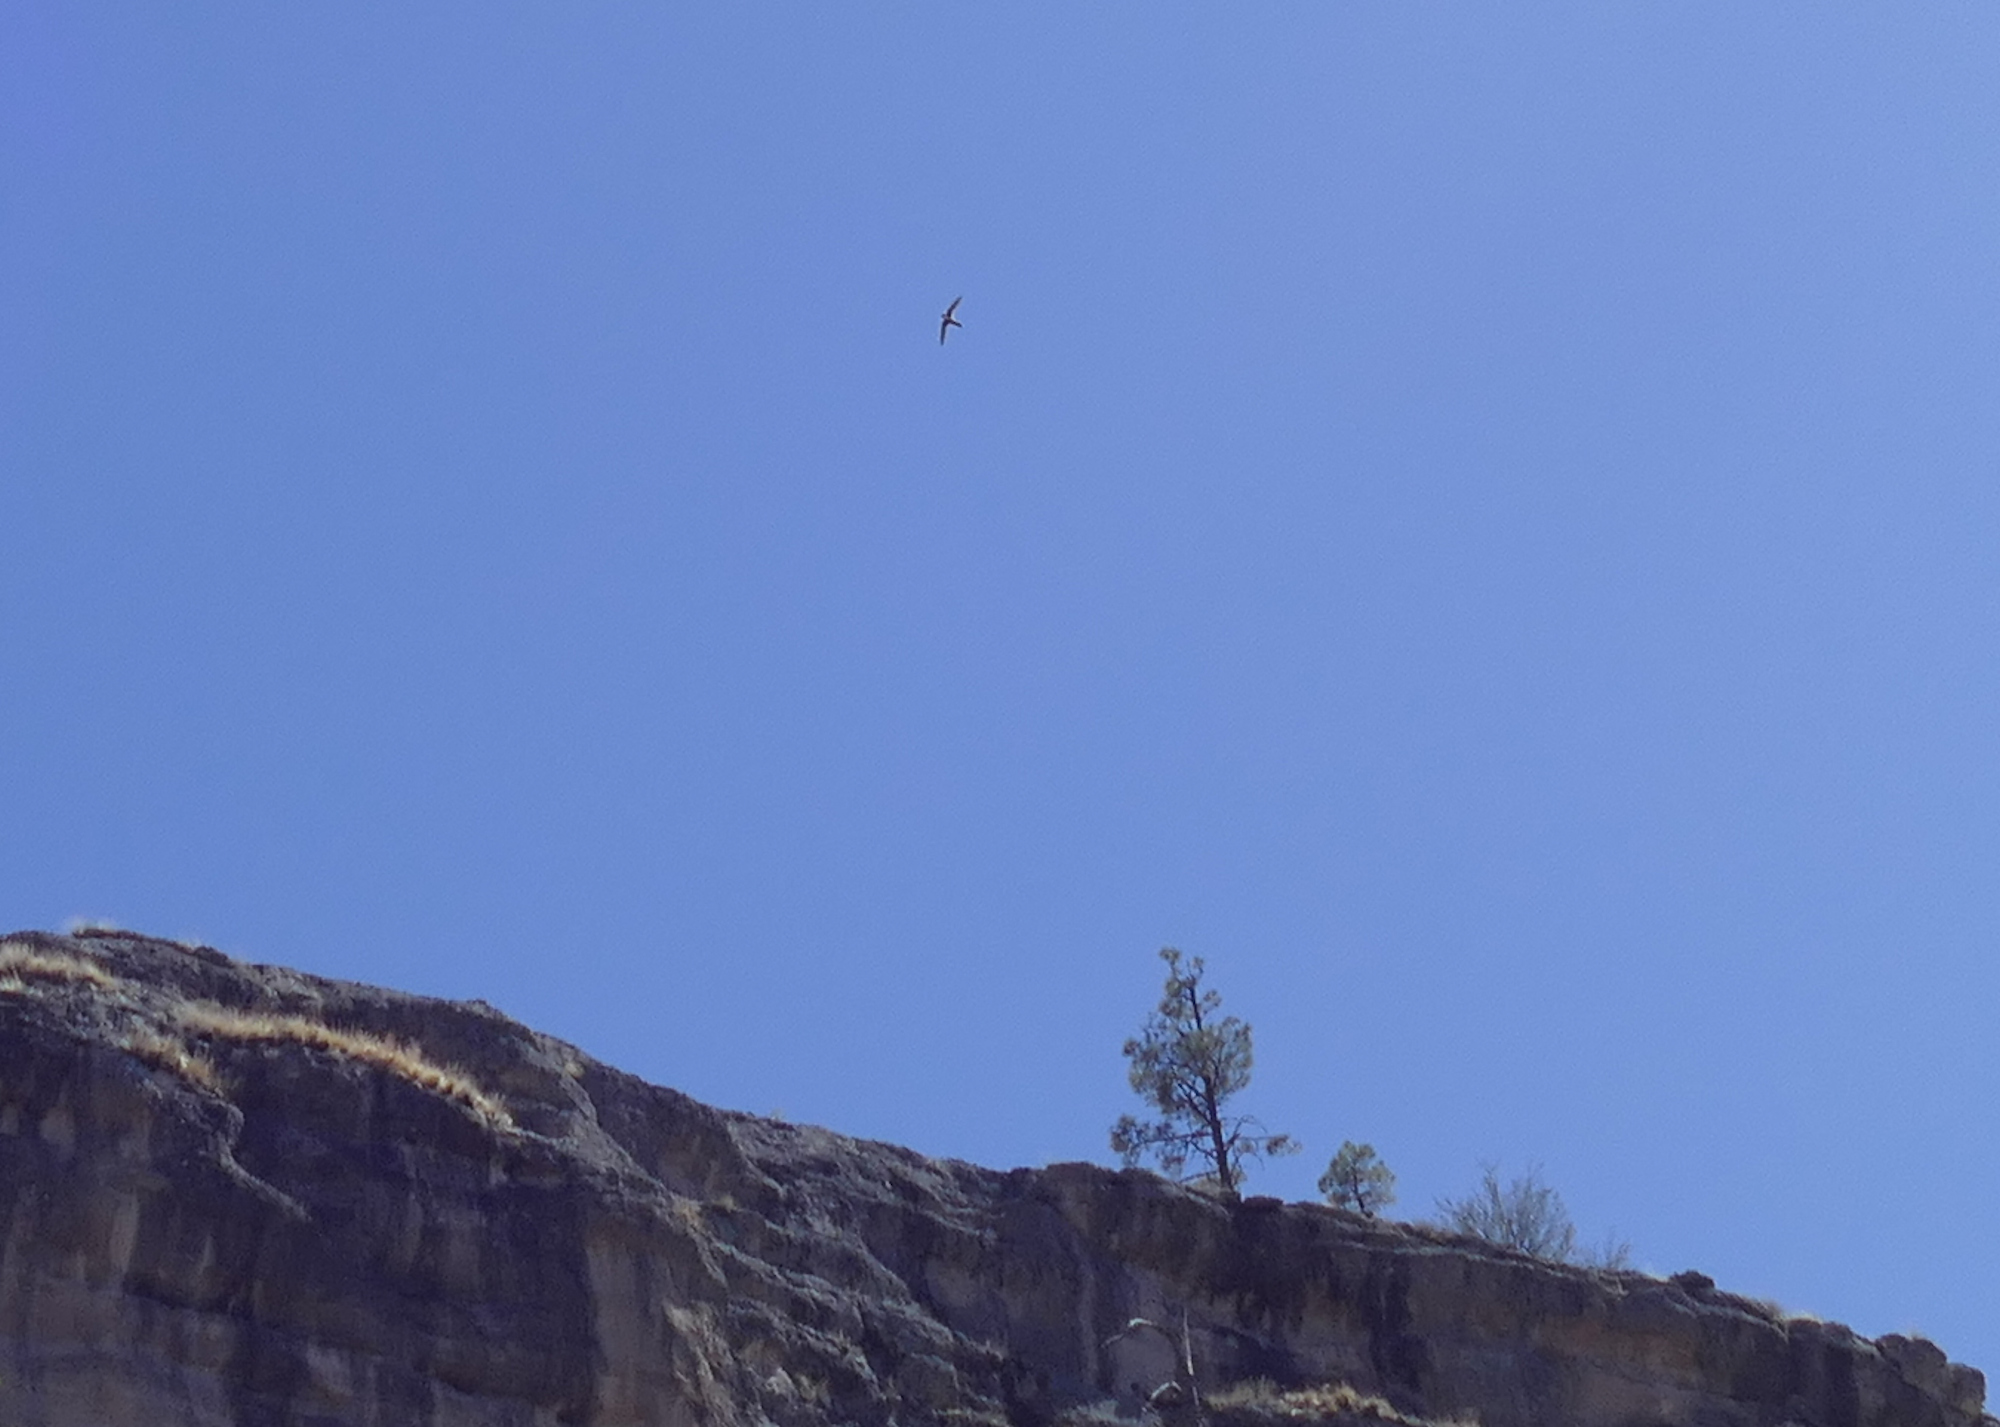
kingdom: Animalia
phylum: Chordata
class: Aves
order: Apodiformes
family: Apodidae
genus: Aeronautes
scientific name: Aeronautes saxatalis
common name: White-throated swift
